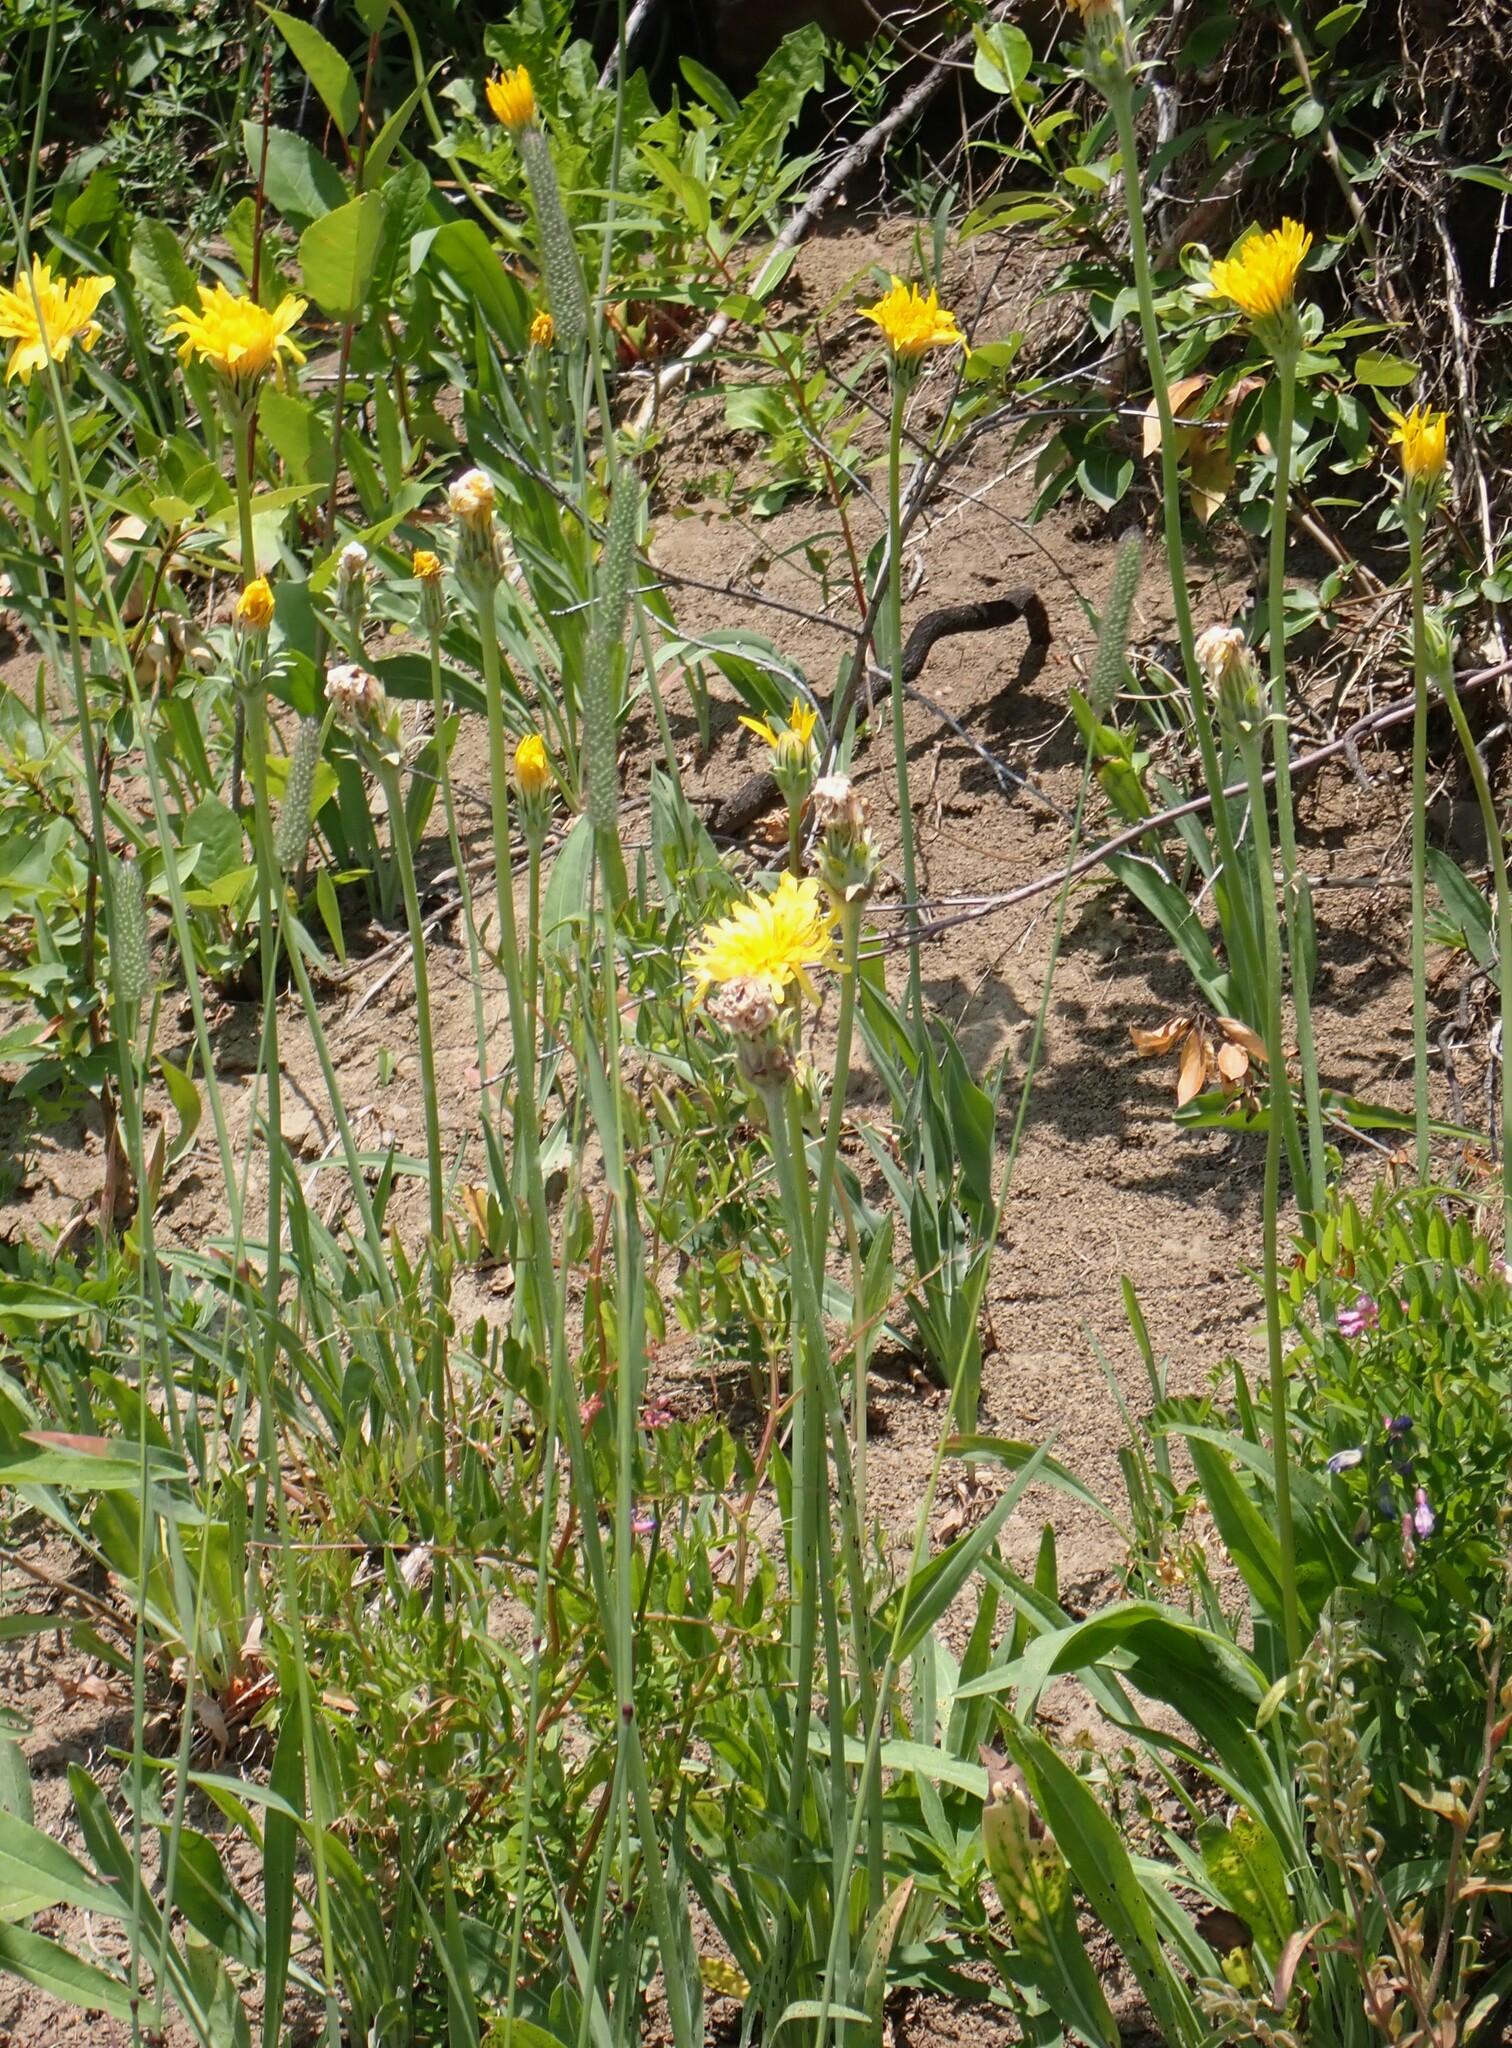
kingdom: Plantae
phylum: Tracheophyta
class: Magnoliopsida
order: Asterales
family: Asteraceae
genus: Agoseris
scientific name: Agoseris glauca
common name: Prairie agoseris
